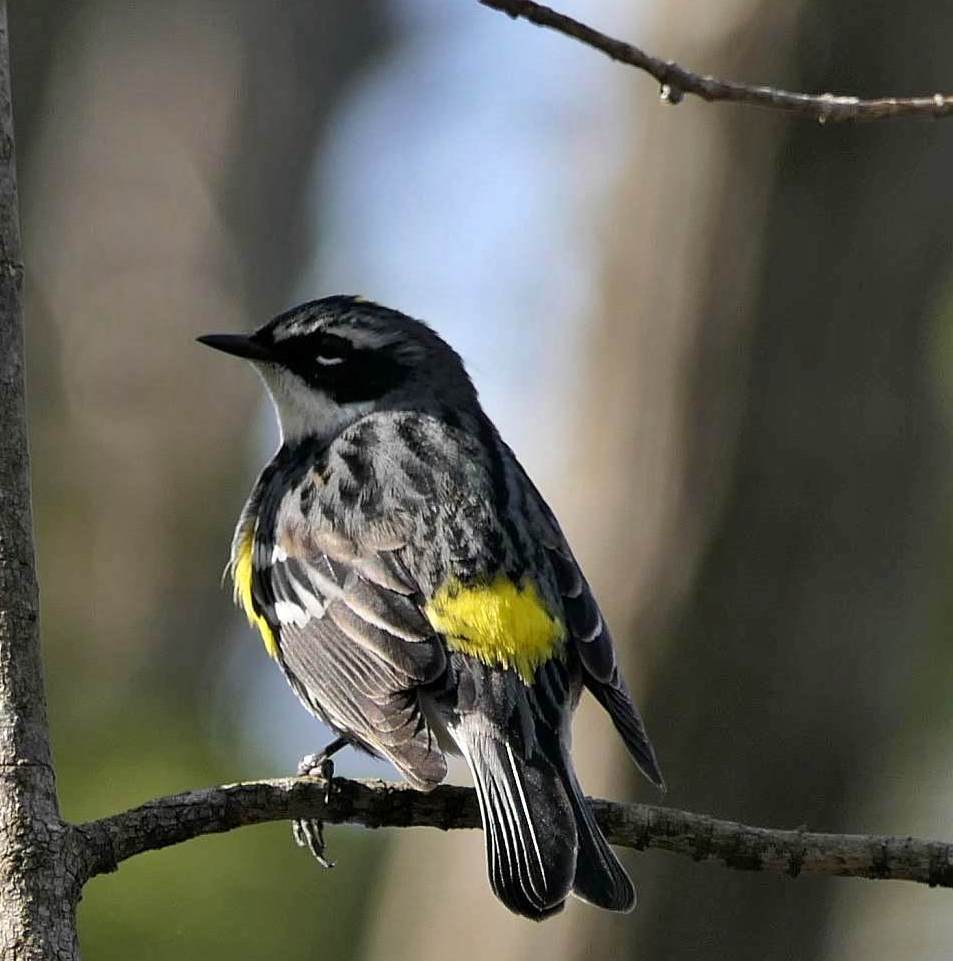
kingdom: Animalia
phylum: Chordata
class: Aves
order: Passeriformes
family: Parulidae
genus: Setophaga
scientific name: Setophaga coronata
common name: Myrtle warbler
